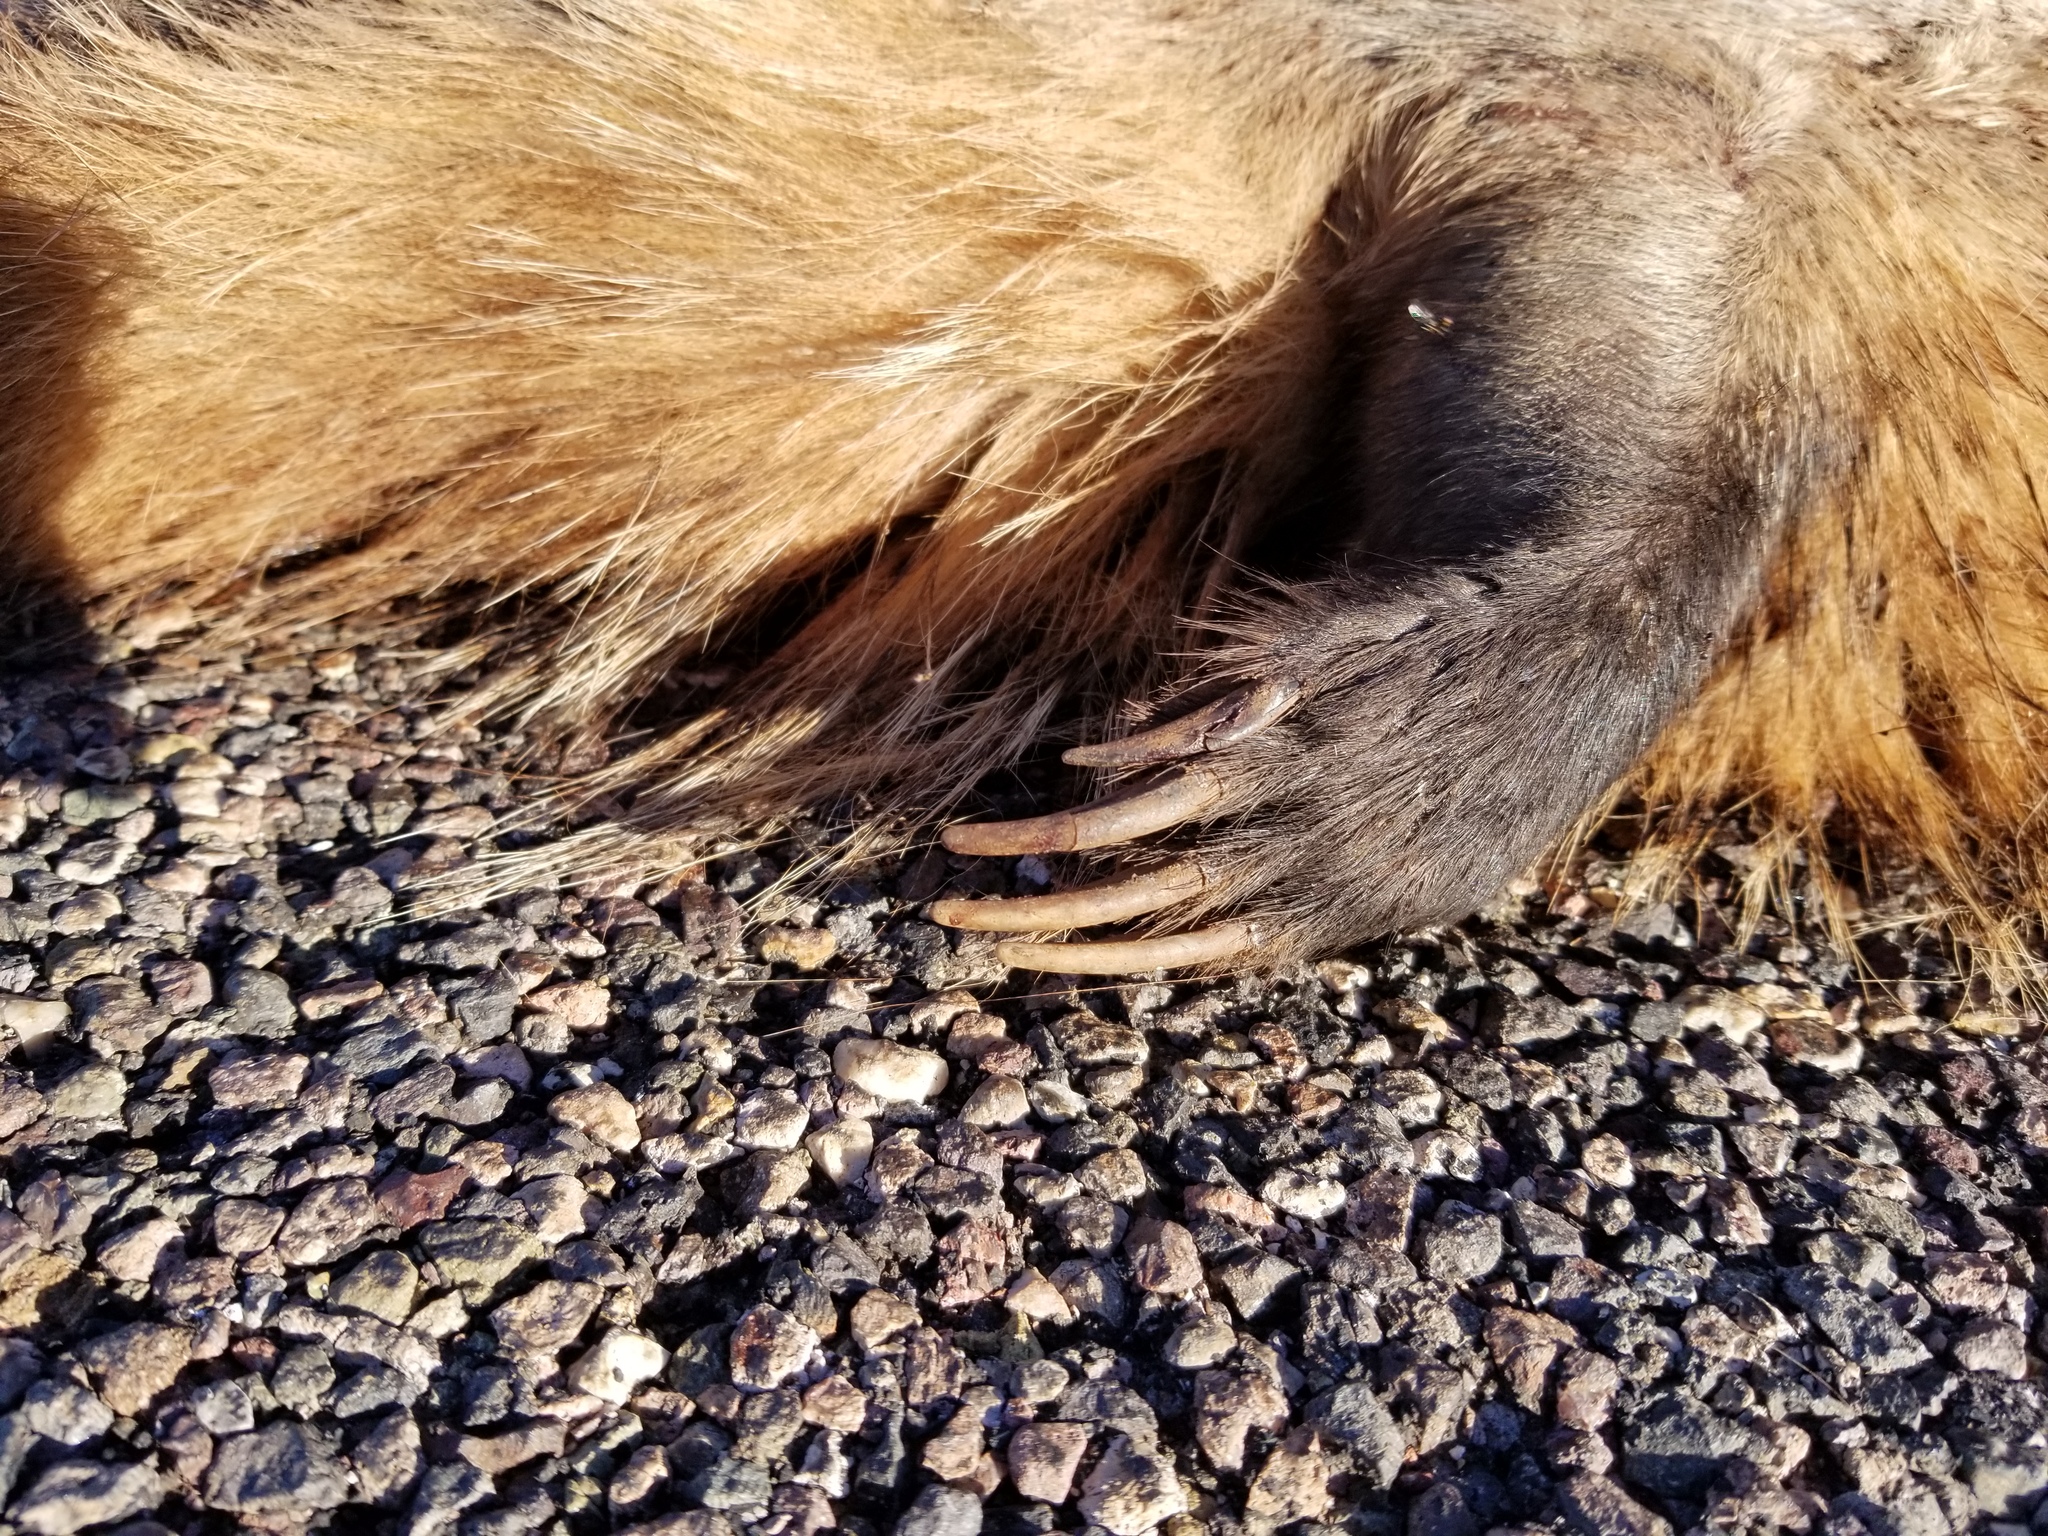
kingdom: Animalia
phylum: Chordata
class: Mammalia
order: Carnivora
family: Mustelidae
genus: Taxidea
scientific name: Taxidea taxus
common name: American badger
